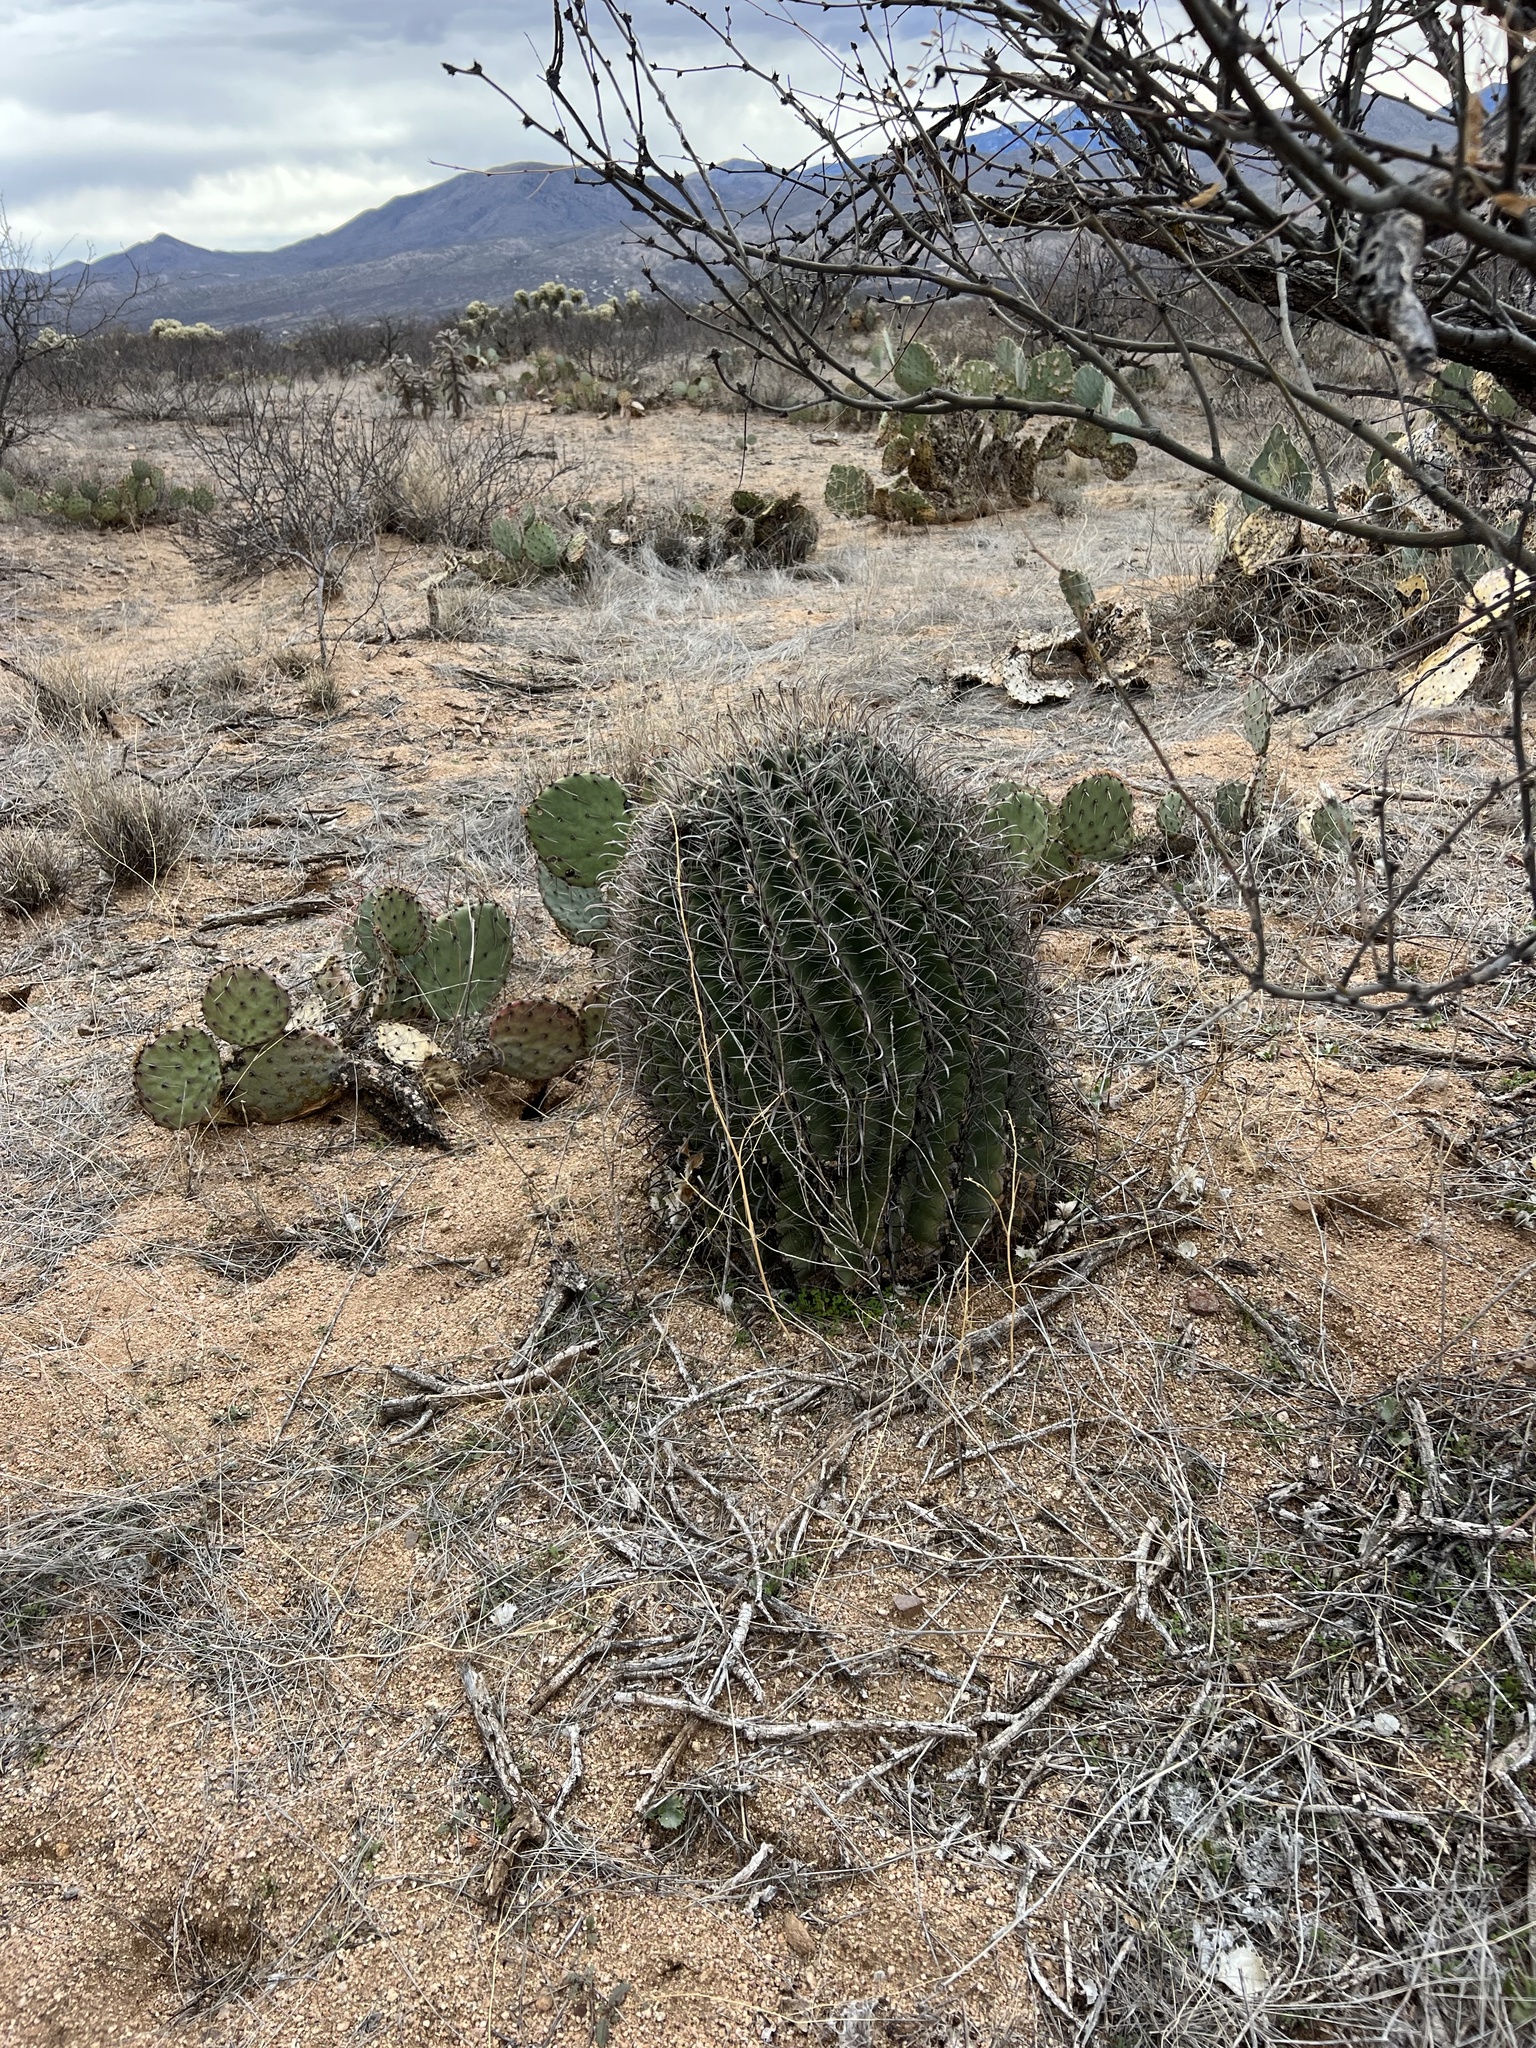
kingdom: Plantae
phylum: Tracheophyta
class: Magnoliopsida
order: Caryophyllales
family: Cactaceae
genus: Ferocactus
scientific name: Ferocactus wislizeni
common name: Candy barrel cactus
